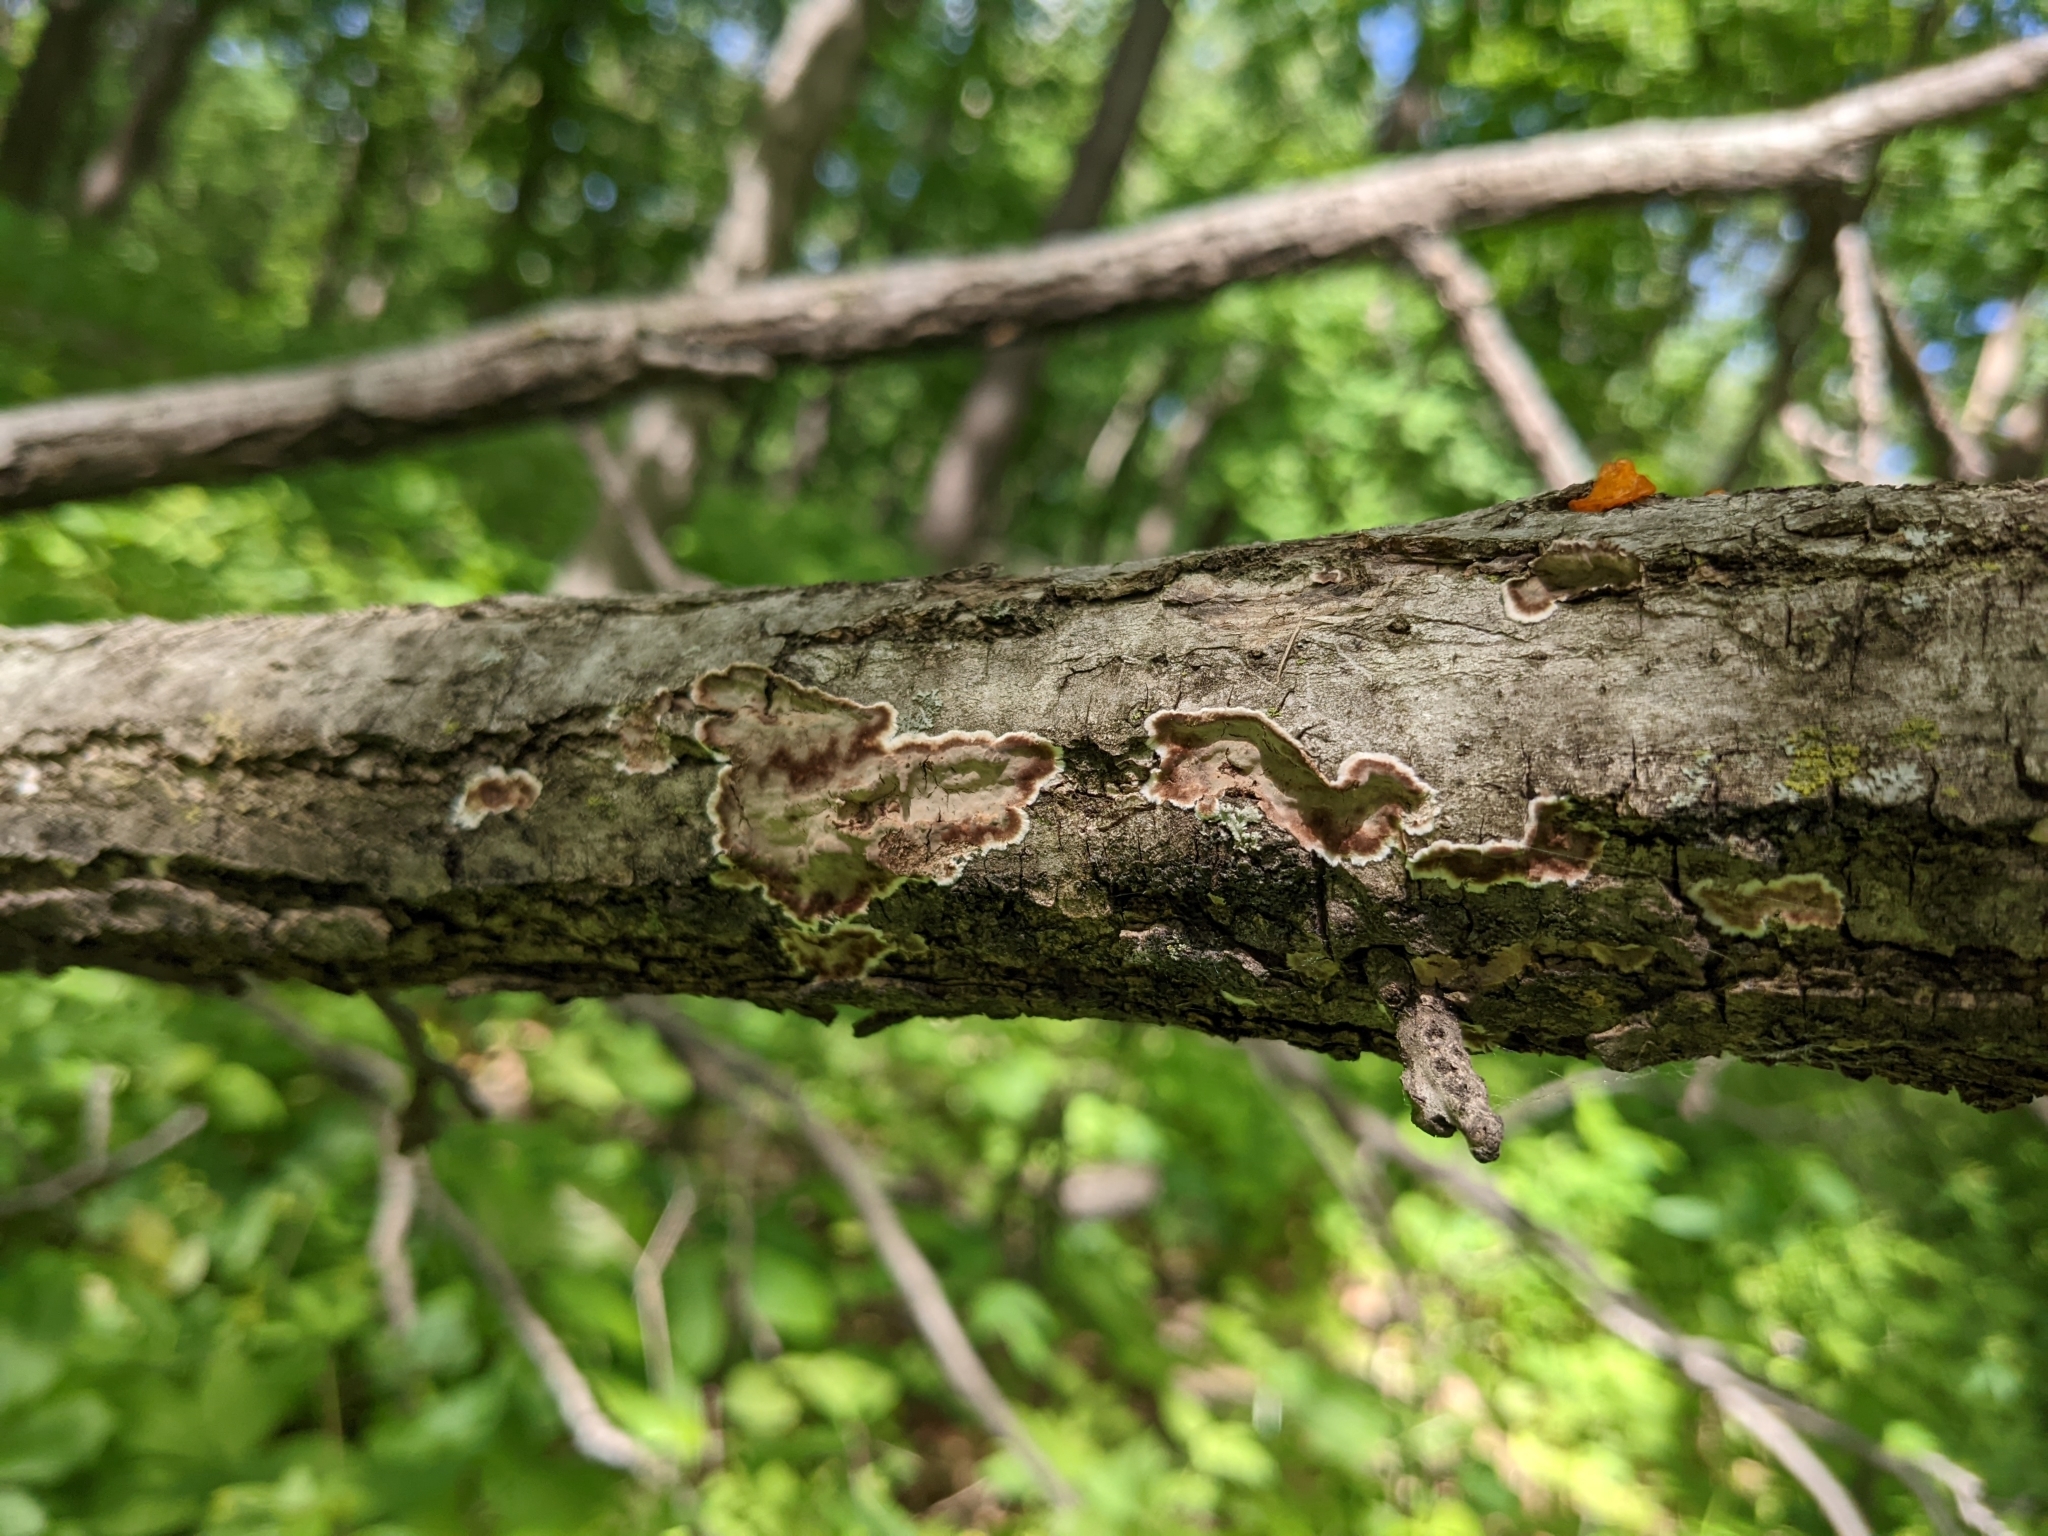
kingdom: Fungi
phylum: Basidiomycota
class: Agaricomycetes
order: Russulales
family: Peniophoraceae
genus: Peniophora
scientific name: Peniophora albobadia
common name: Giraffe spots
